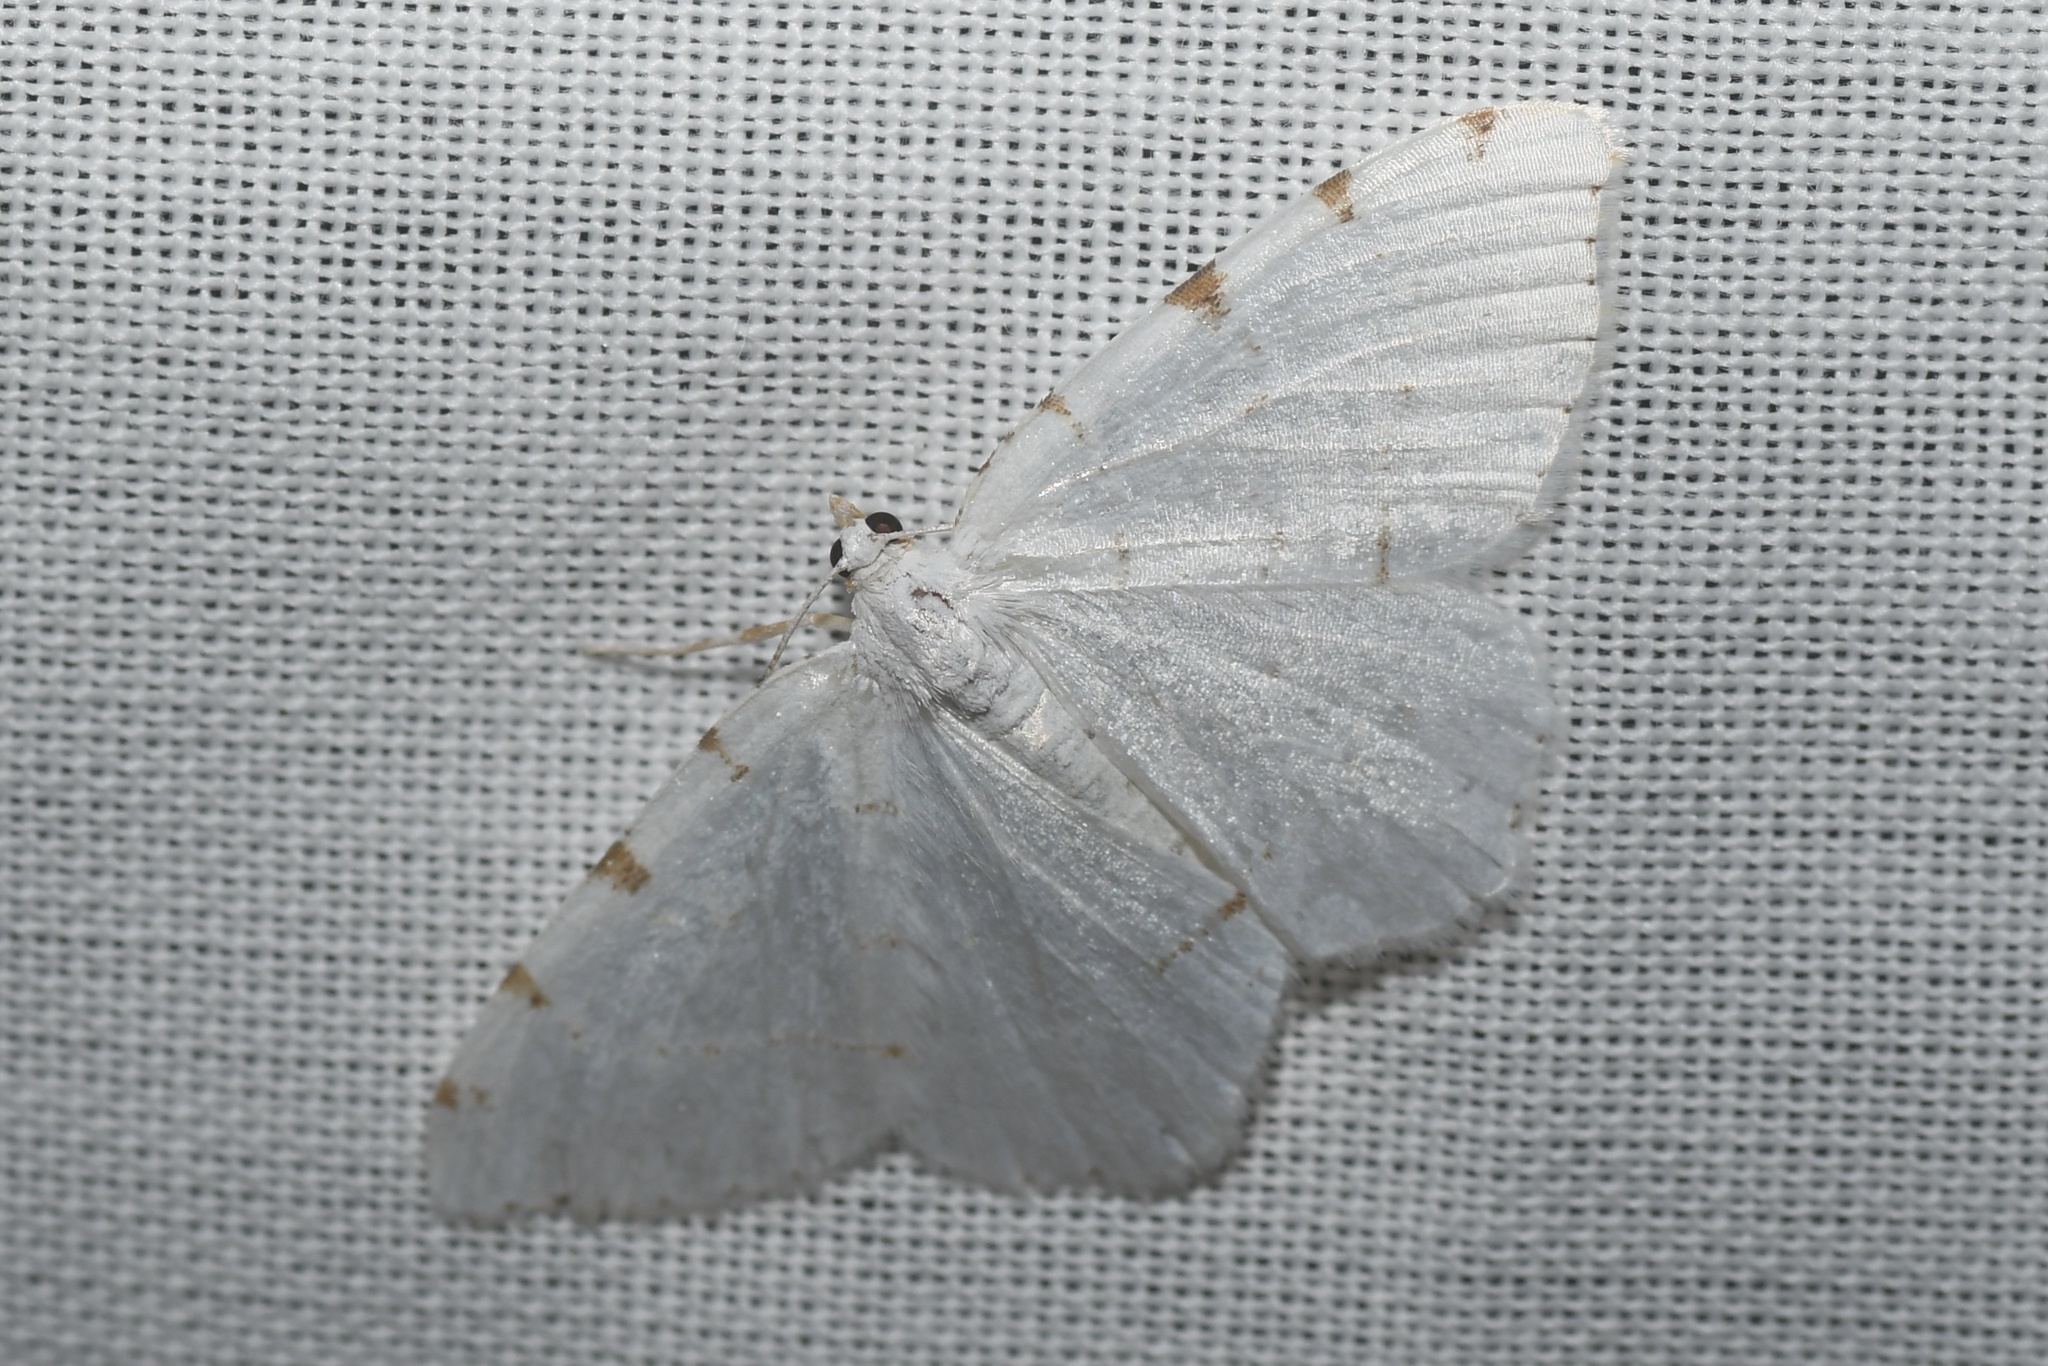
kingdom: Animalia
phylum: Arthropoda
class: Insecta
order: Lepidoptera
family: Geometridae
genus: Macaria
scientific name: Macaria pustularia
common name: Lesser maple spanworm moth
